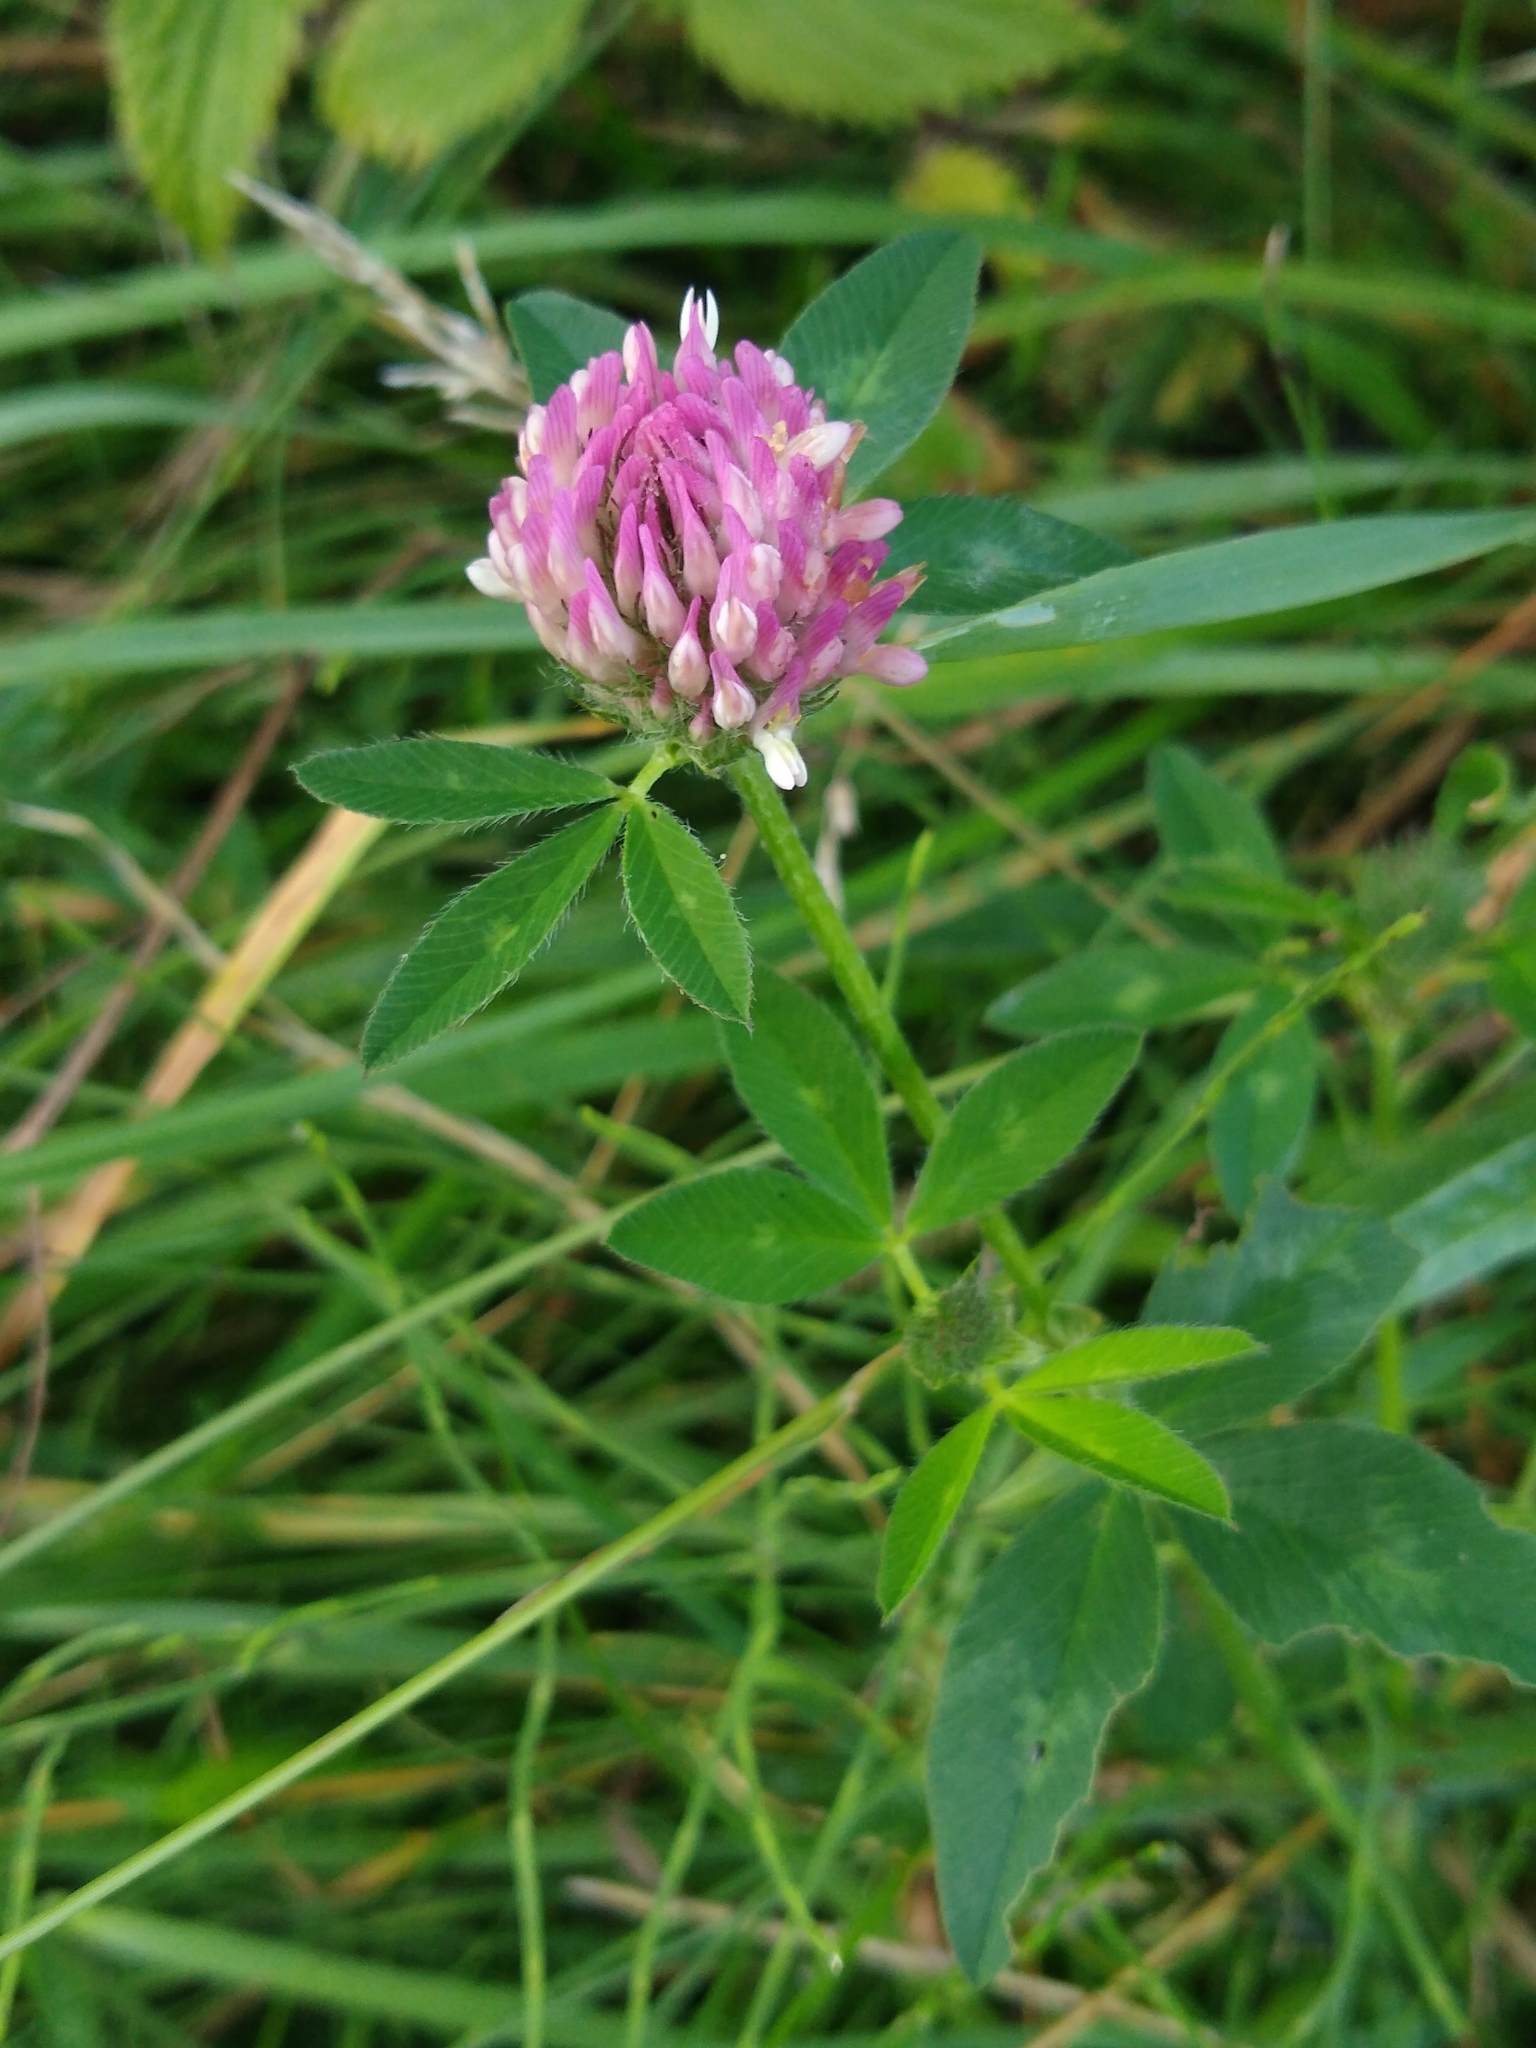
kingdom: Plantae
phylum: Tracheophyta
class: Magnoliopsida
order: Fabales
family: Fabaceae
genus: Trifolium
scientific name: Trifolium pratense
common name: Red clover
